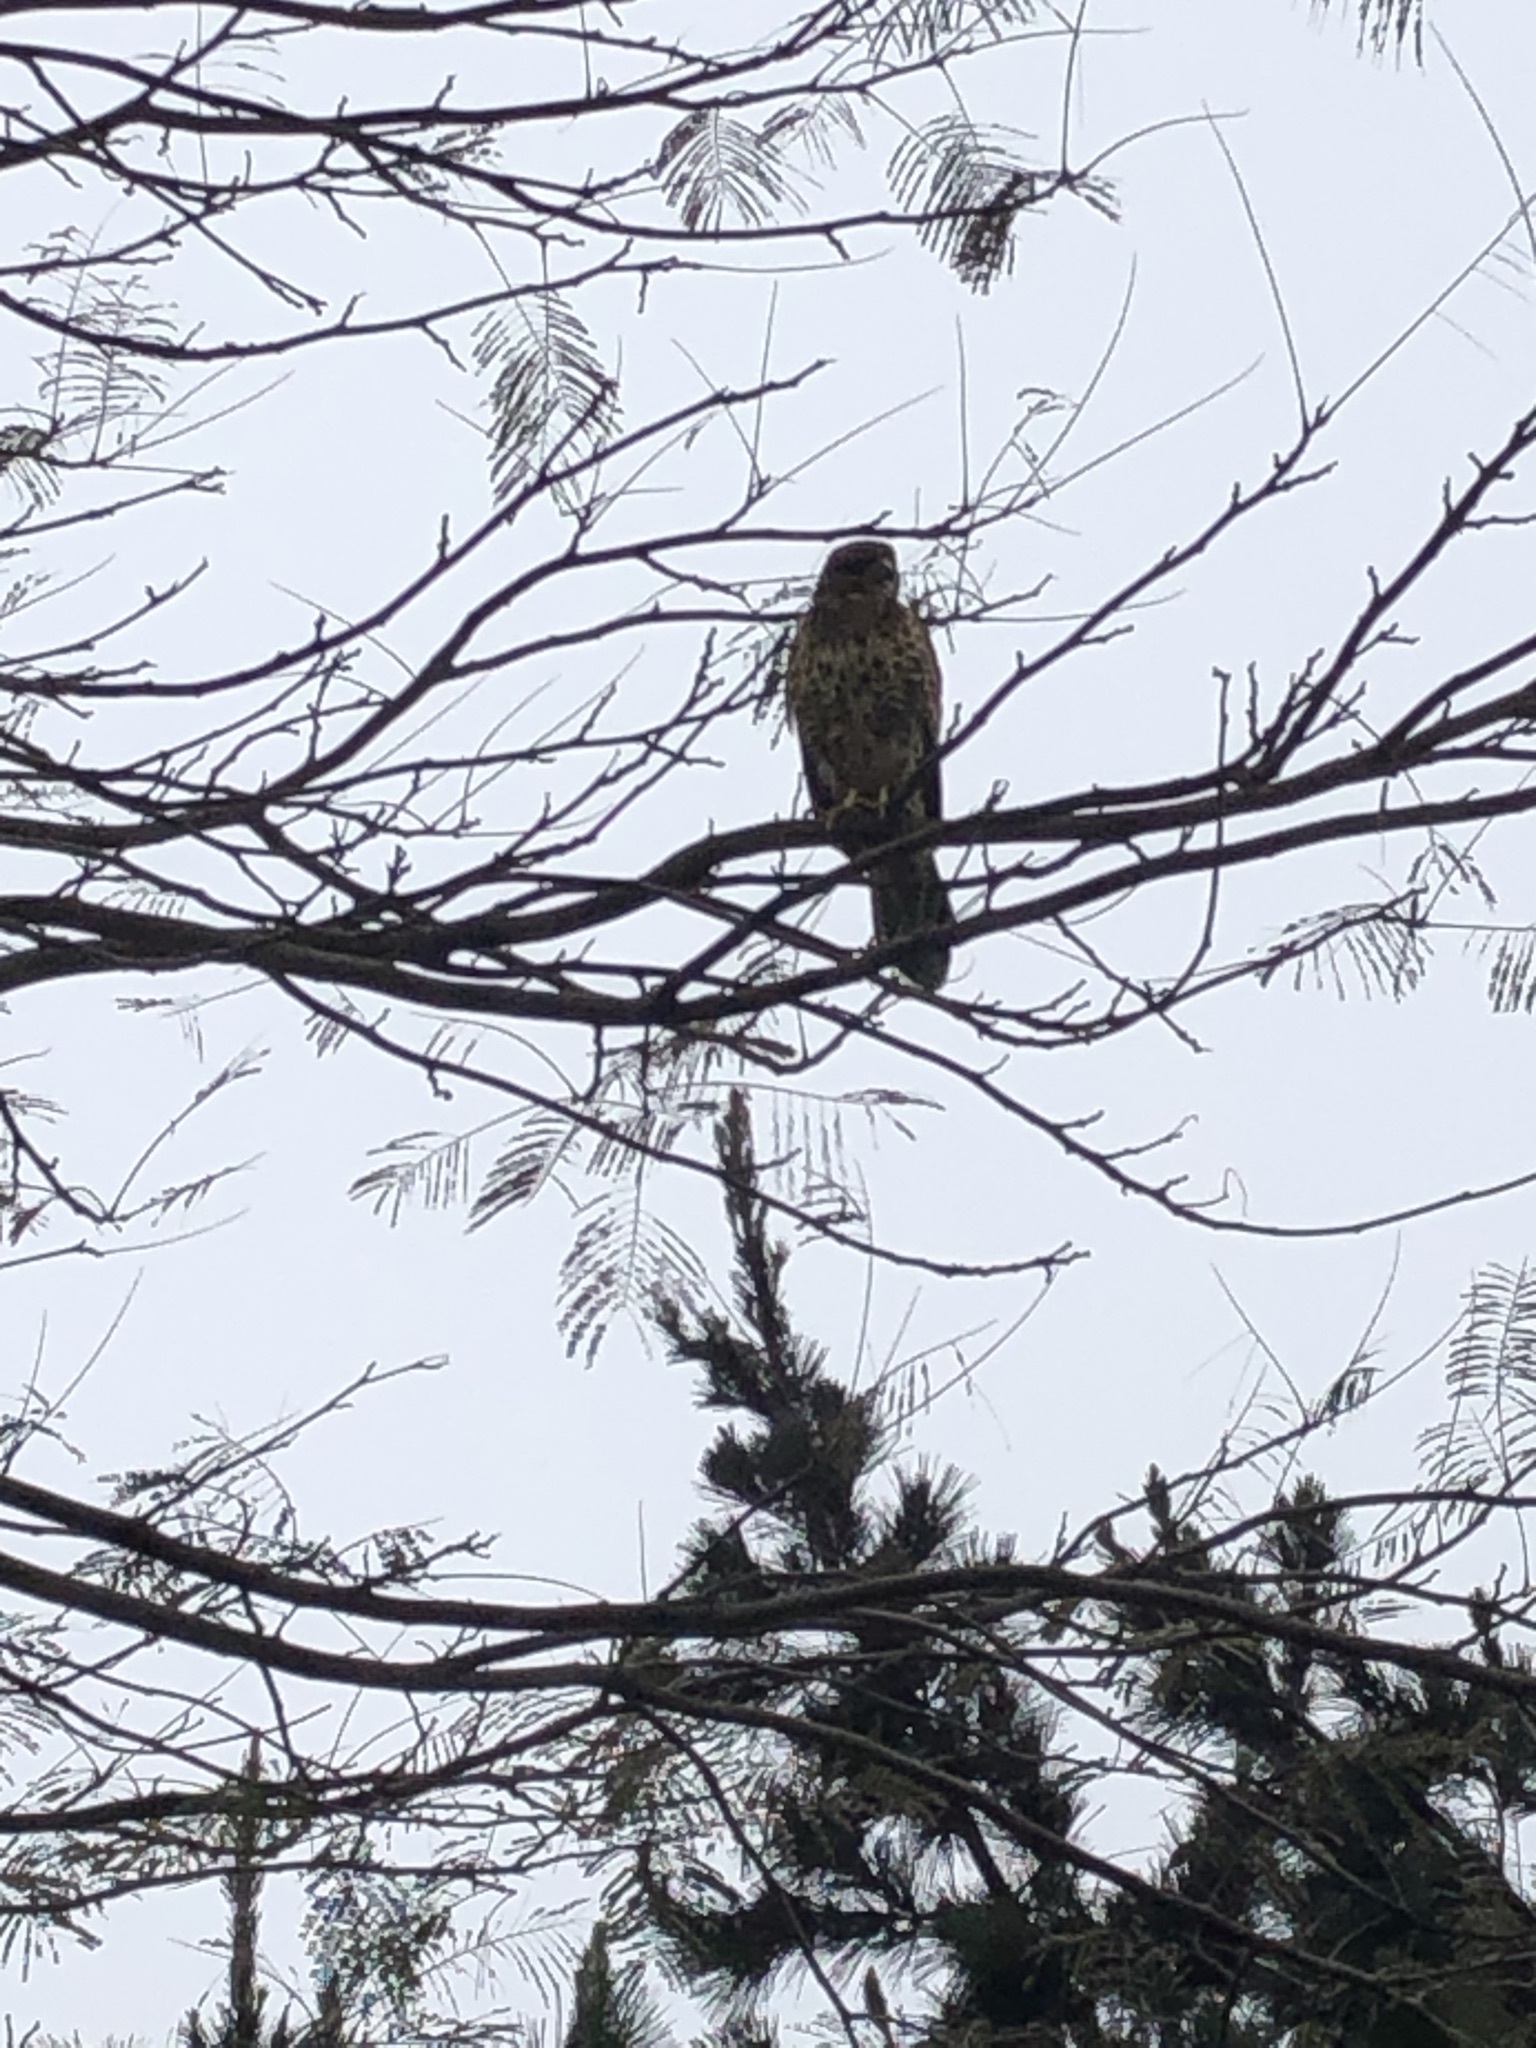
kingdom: Animalia
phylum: Chordata
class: Aves
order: Accipitriformes
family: Accipitridae
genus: Parabuteo
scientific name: Parabuteo unicinctus
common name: Harris's hawk
